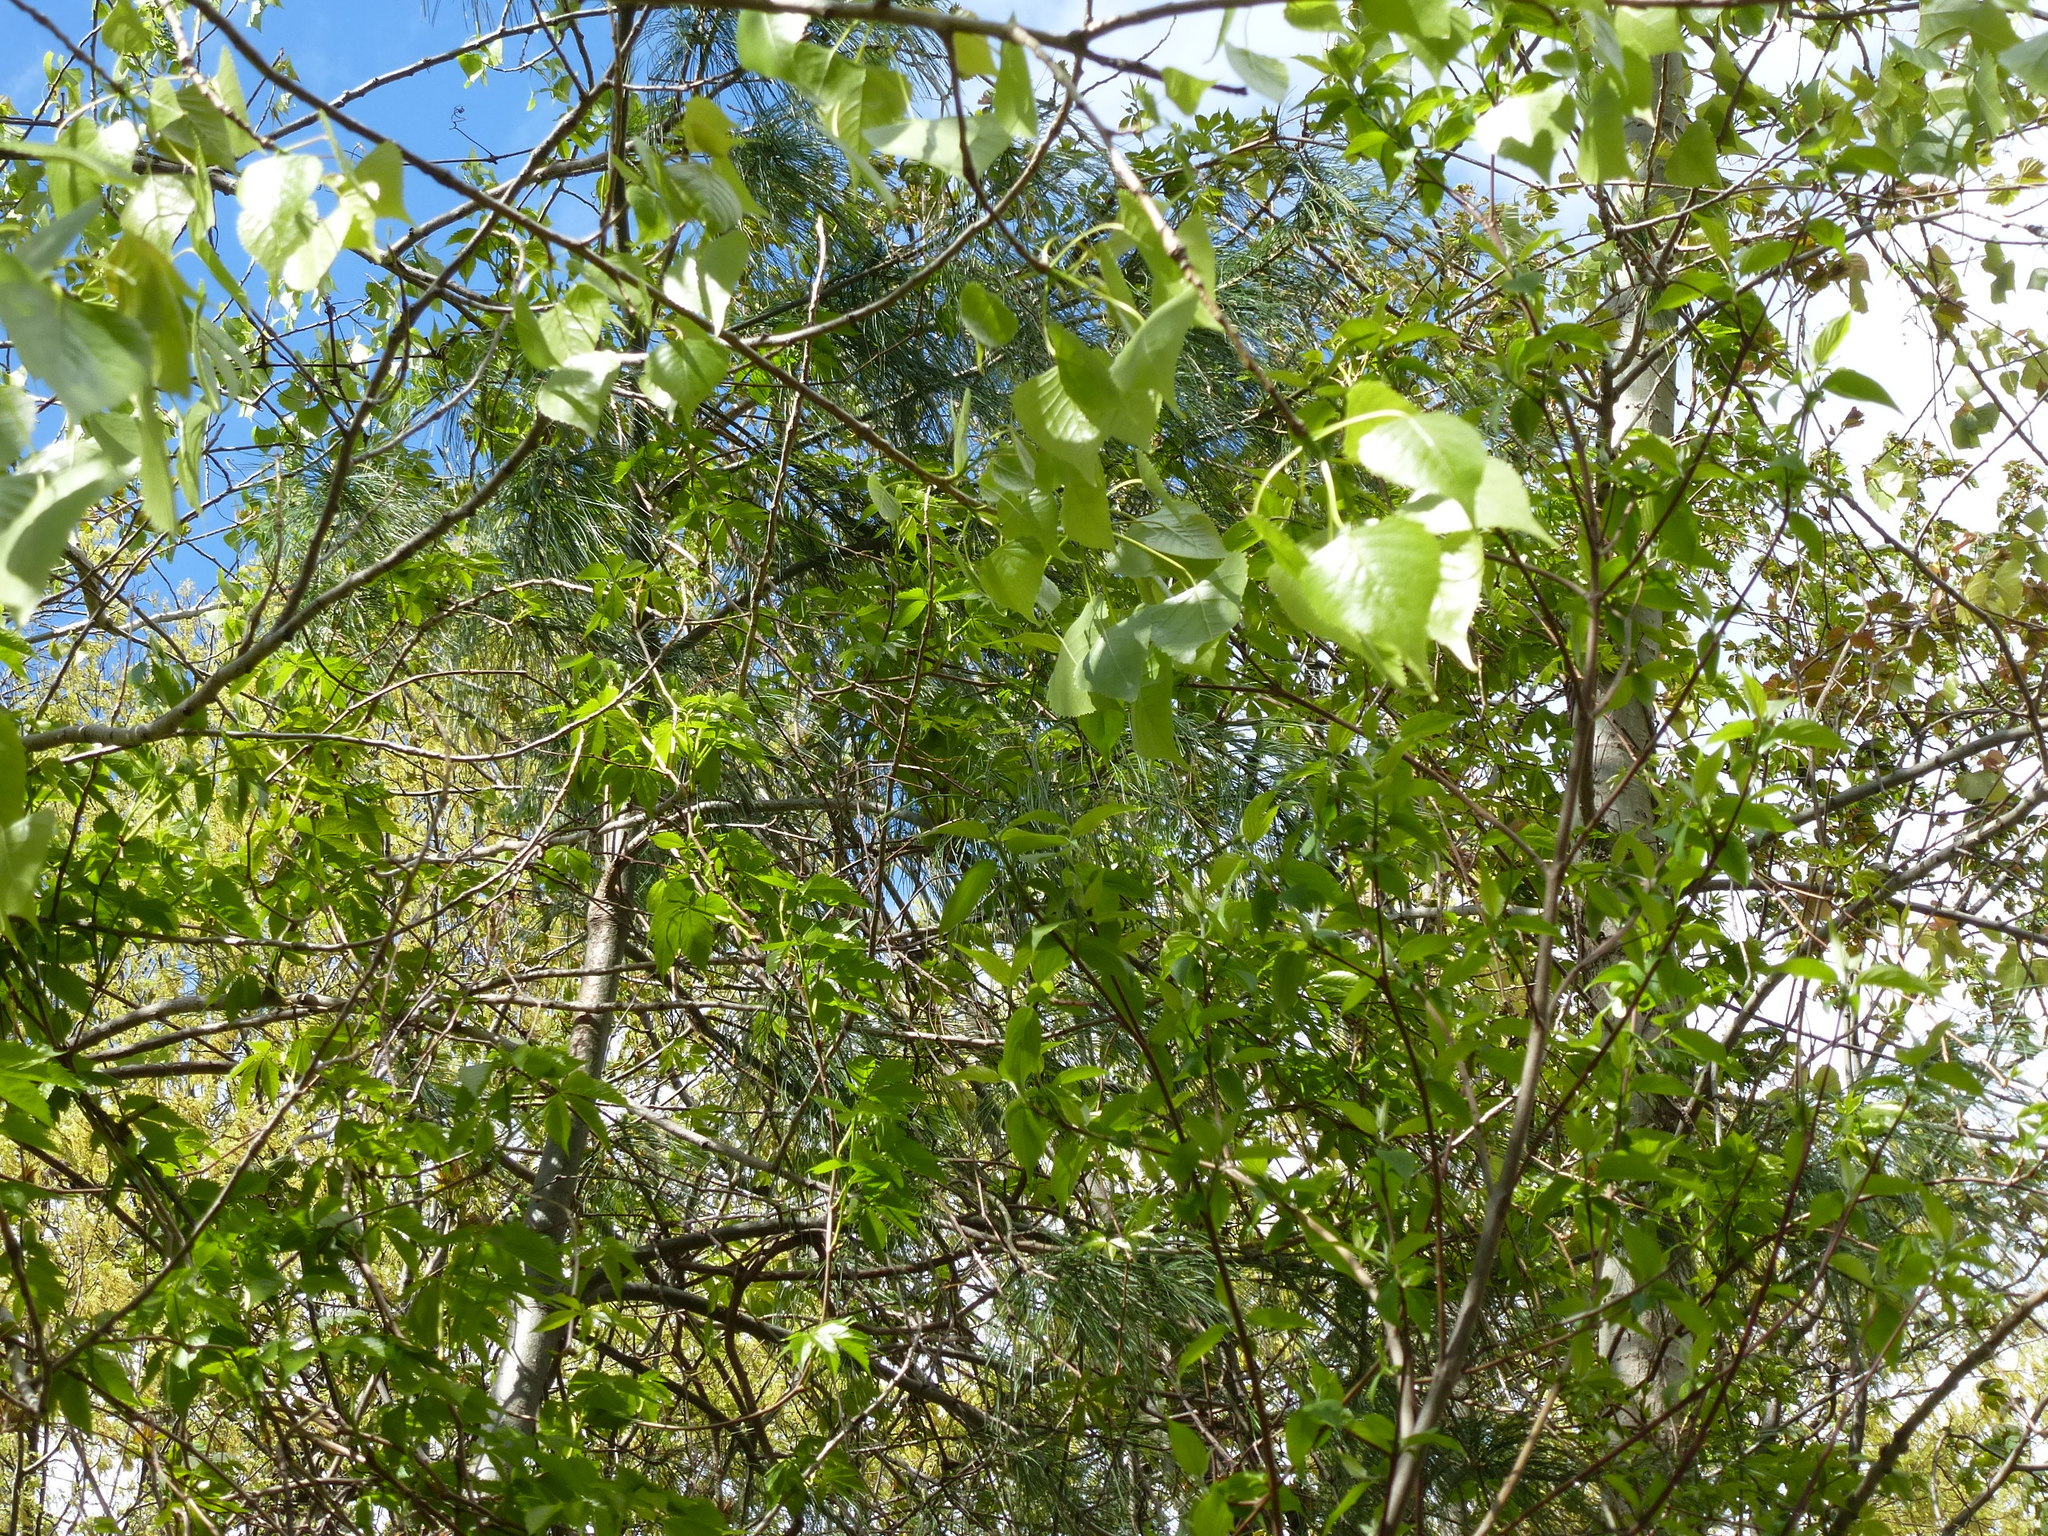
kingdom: Plantae
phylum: Tracheophyta
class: Magnoliopsida
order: Malpighiales
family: Salicaceae
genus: Populus
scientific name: Populus deltoides
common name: Eastern cottonwood
